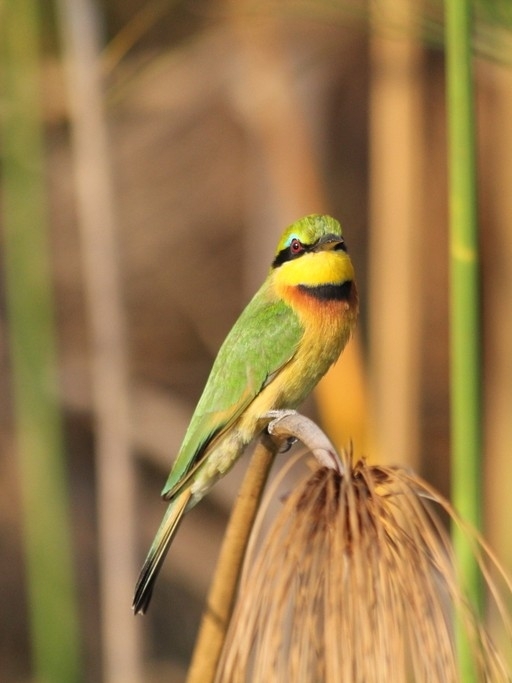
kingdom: Animalia
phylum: Chordata
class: Aves
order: Coraciiformes
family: Meropidae
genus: Merops
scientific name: Merops pusillus
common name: Little bee-eater
